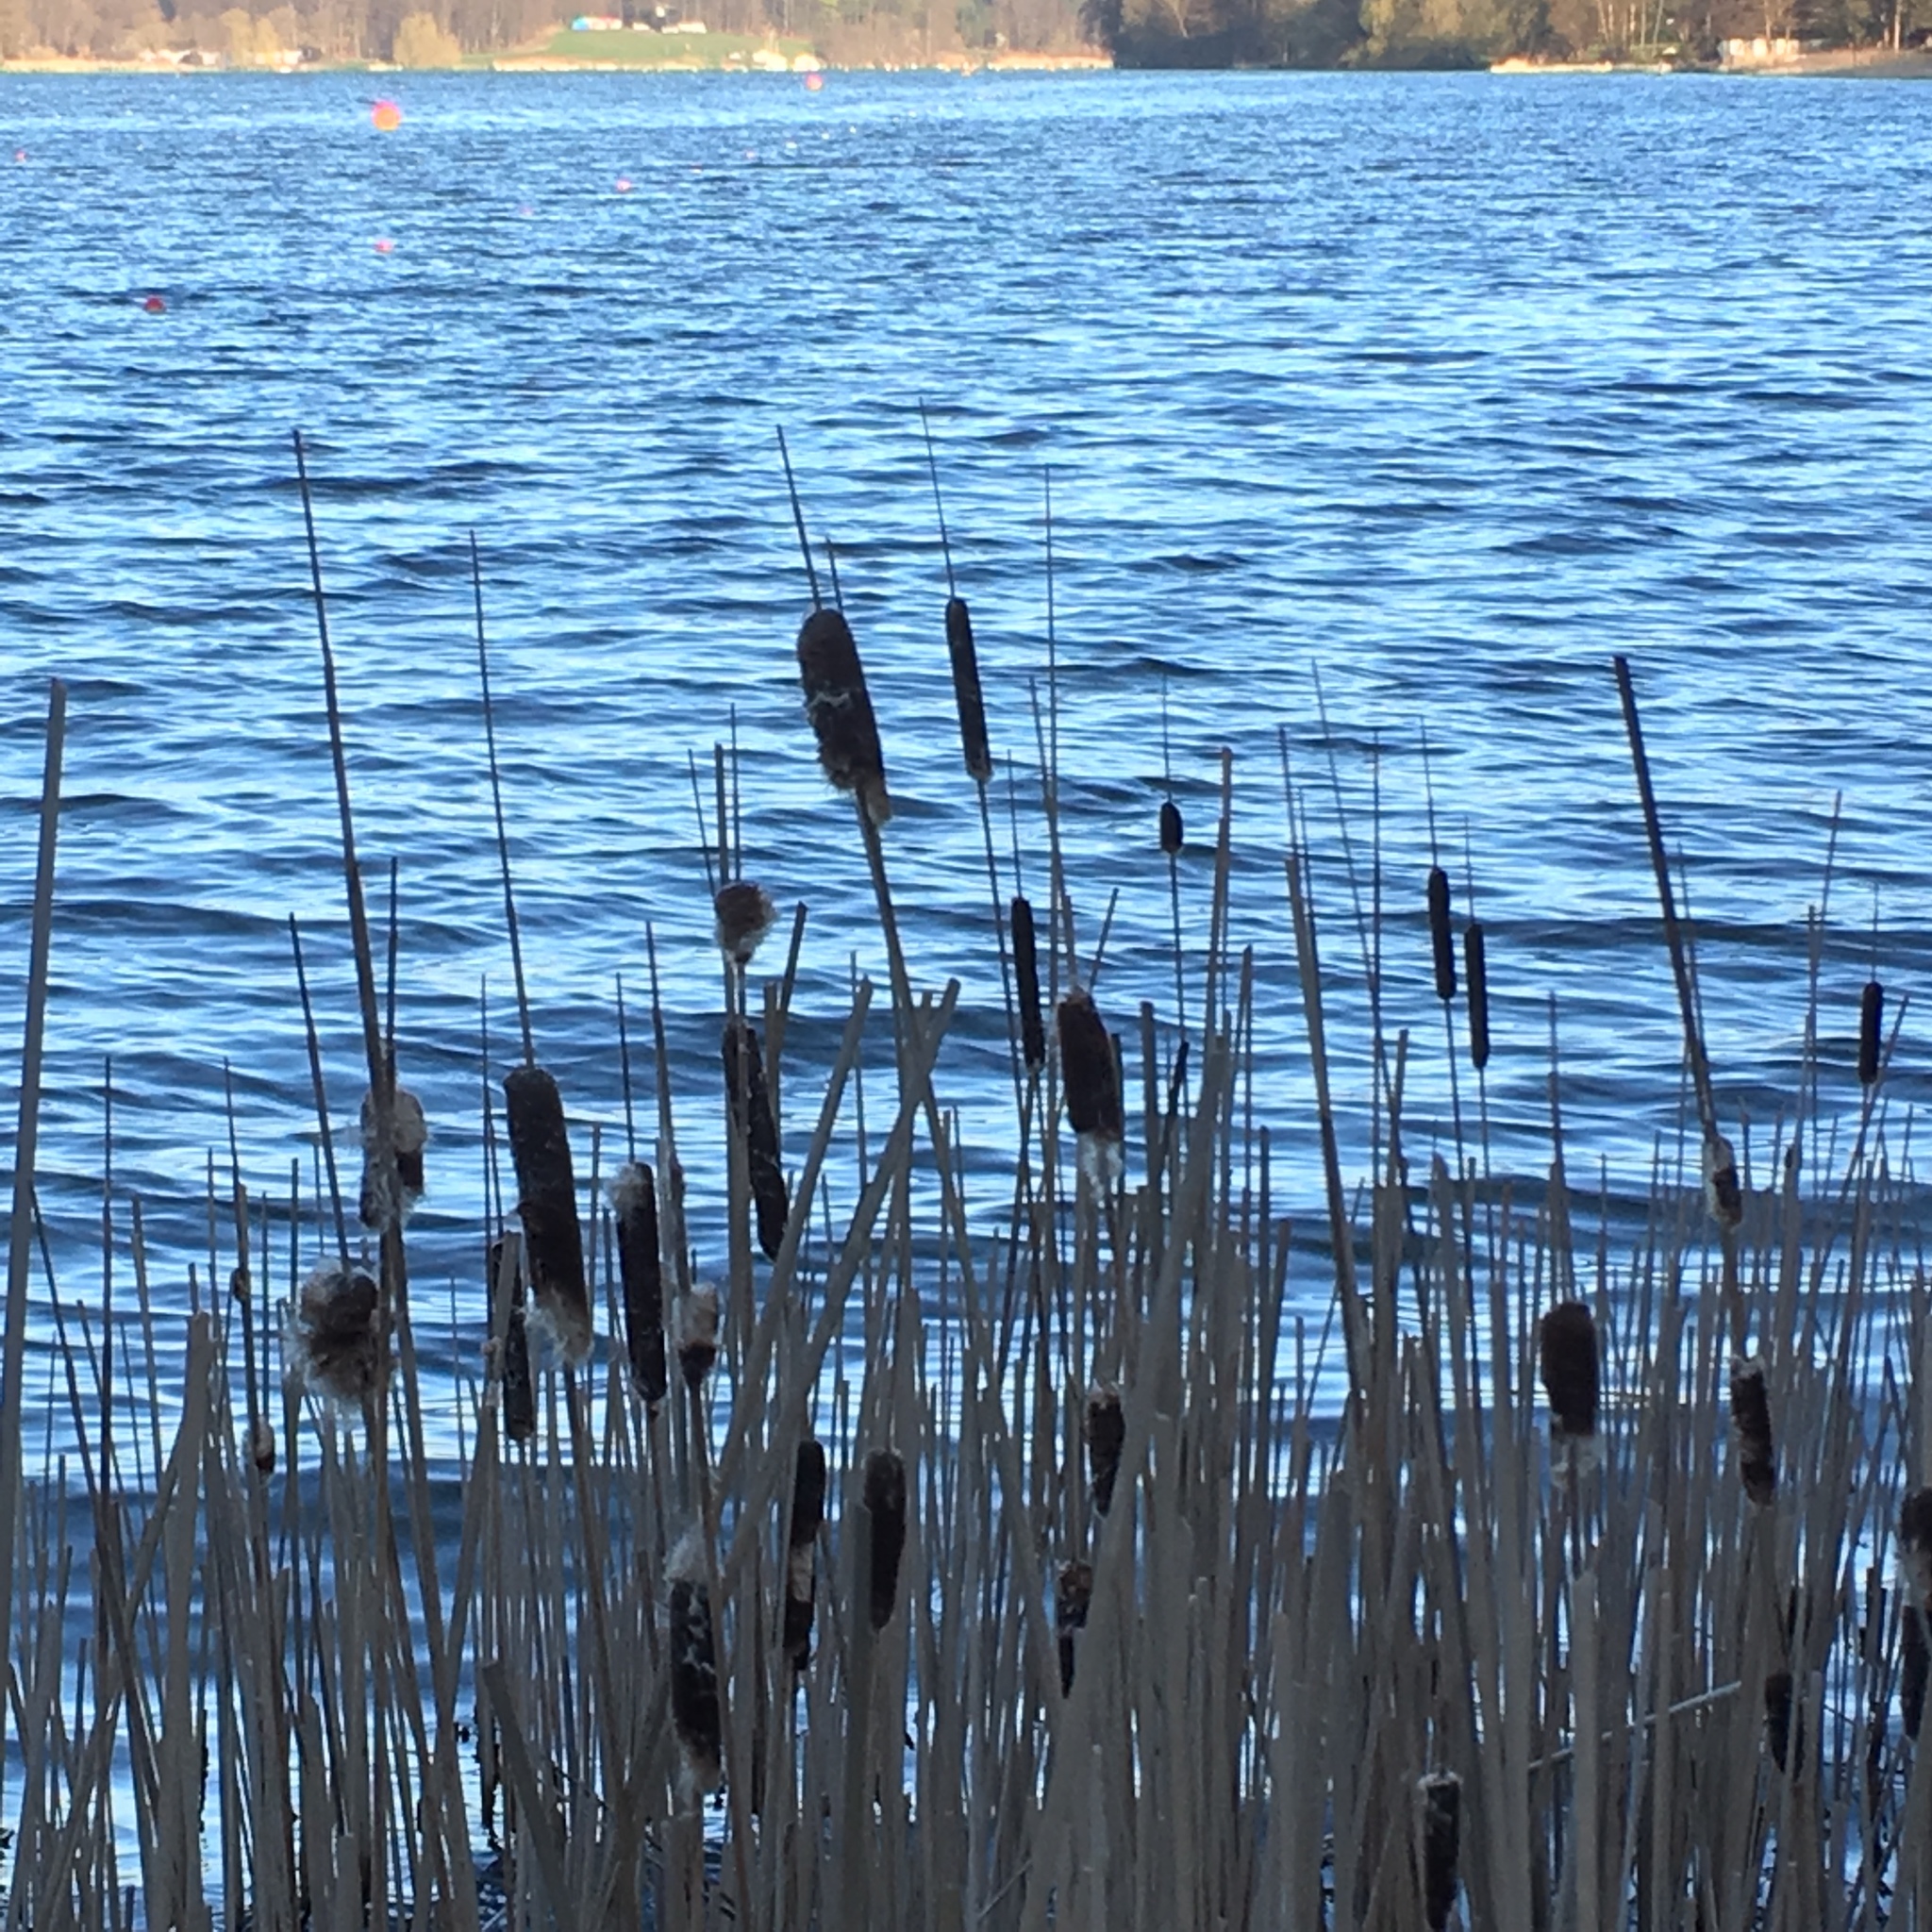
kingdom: Plantae
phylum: Tracheophyta
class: Liliopsida
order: Poales
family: Typhaceae
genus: Typha
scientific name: Typha latifolia
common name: Broadleaf cattail
